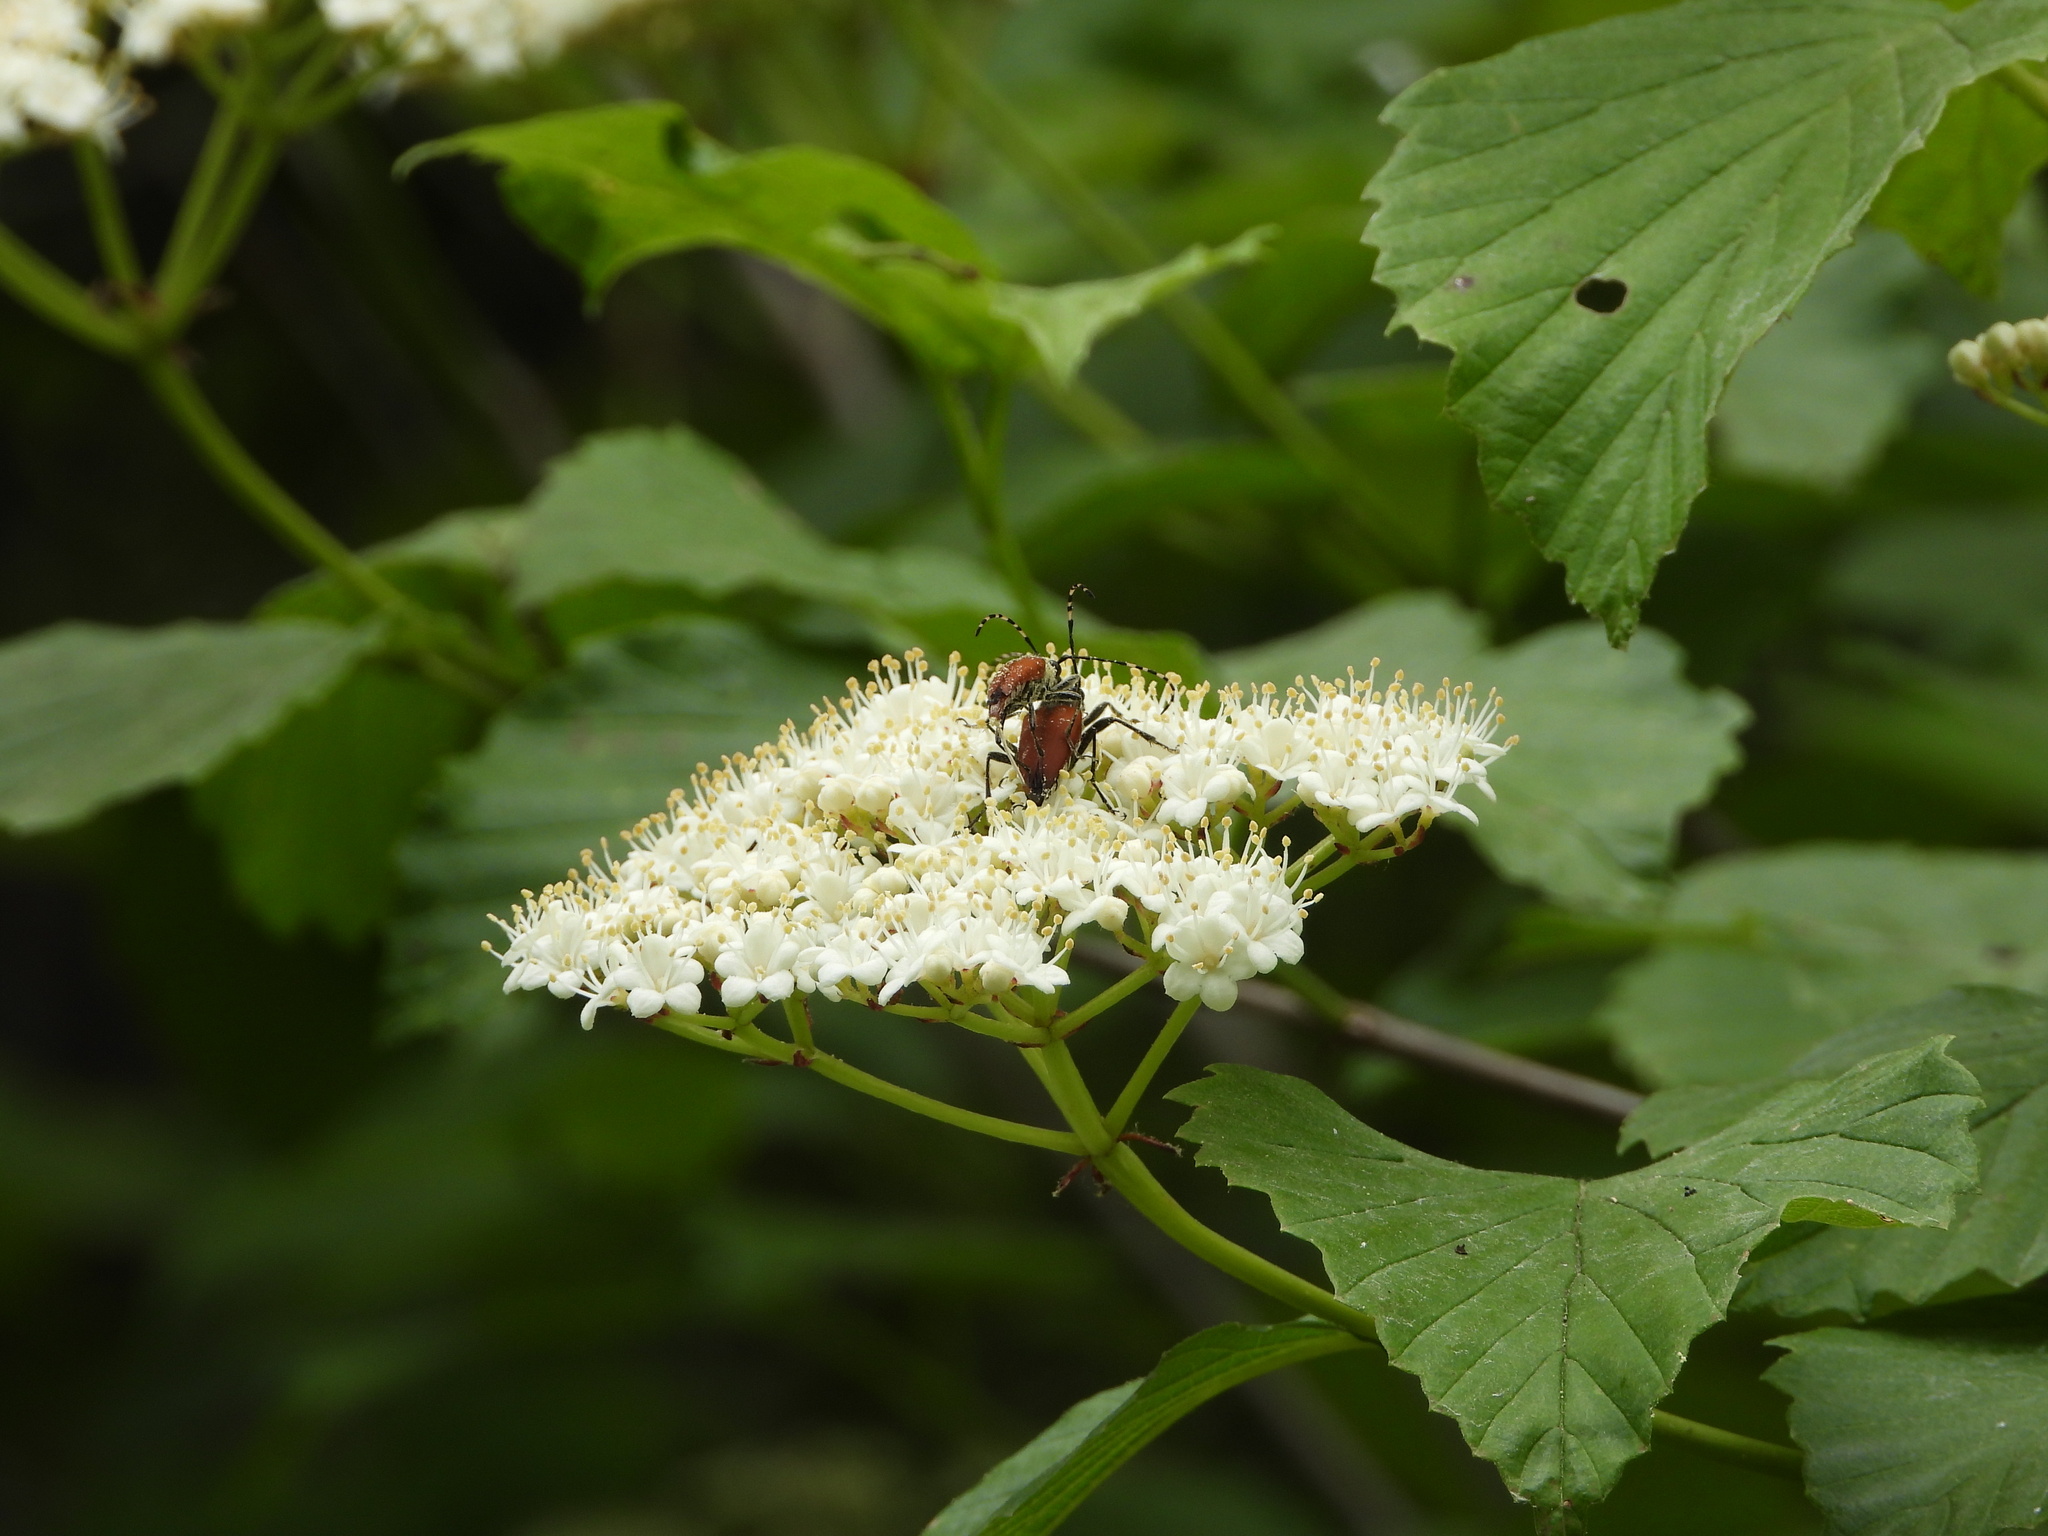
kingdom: Animalia
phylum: Arthropoda
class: Insecta
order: Coleoptera
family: Cerambycidae
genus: Brachyleptura
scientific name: Brachyleptura rubrica
